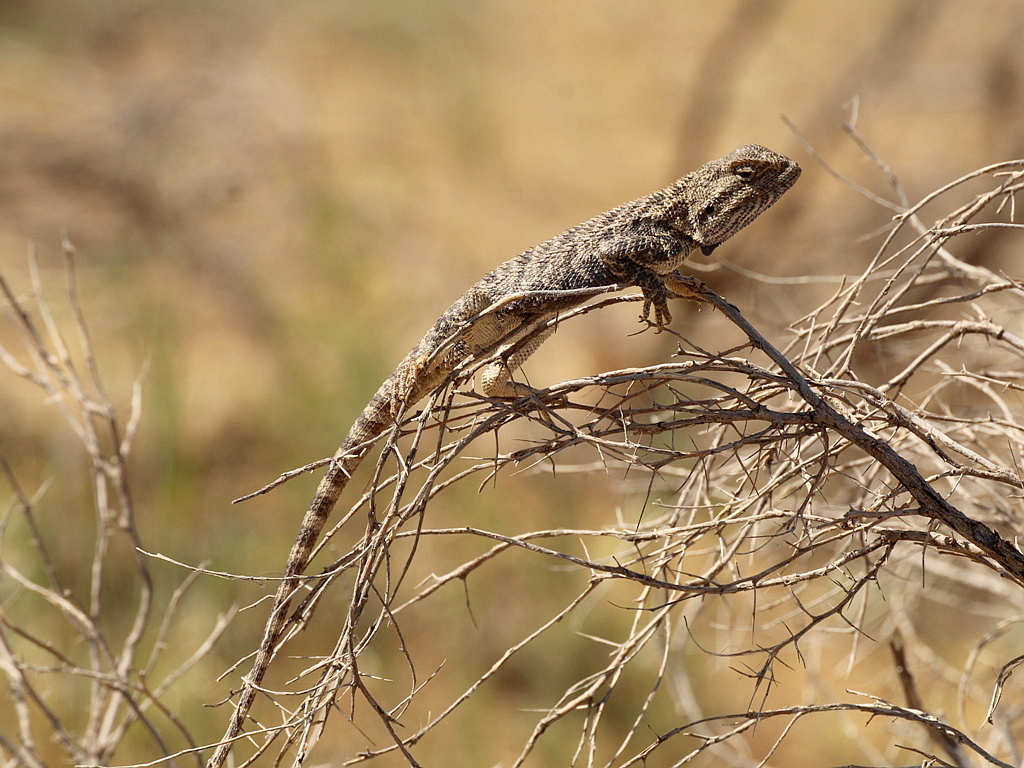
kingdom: Animalia
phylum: Chordata
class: Squamata
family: Agamidae
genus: Trapelus
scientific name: Trapelus sanguinolentus
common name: Steppe agama
